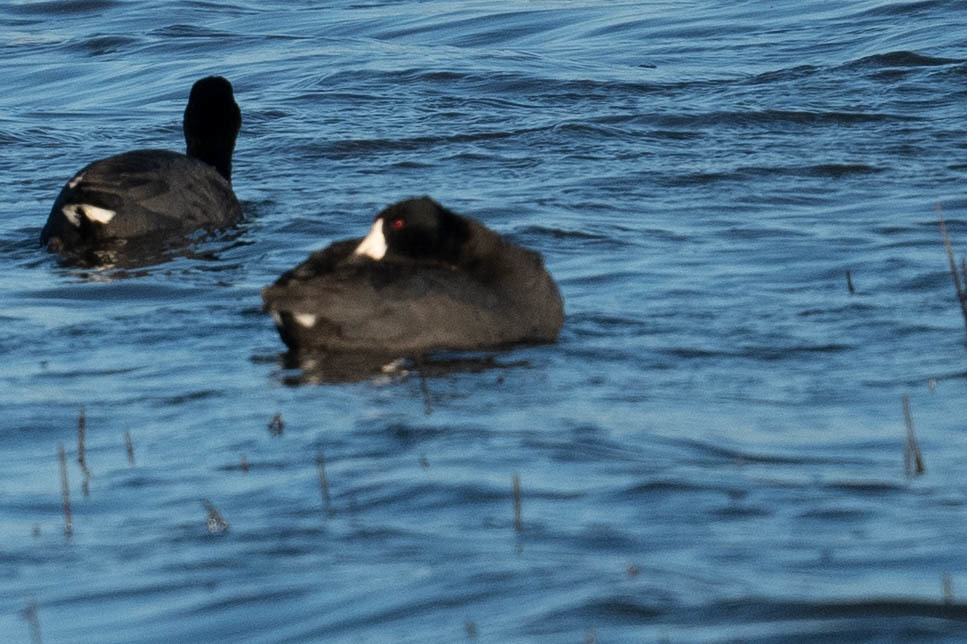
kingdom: Animalia
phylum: Chordata
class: Aves
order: Gruiformes
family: Rallidae
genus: Fulica
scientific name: Fulica americana
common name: American coot
